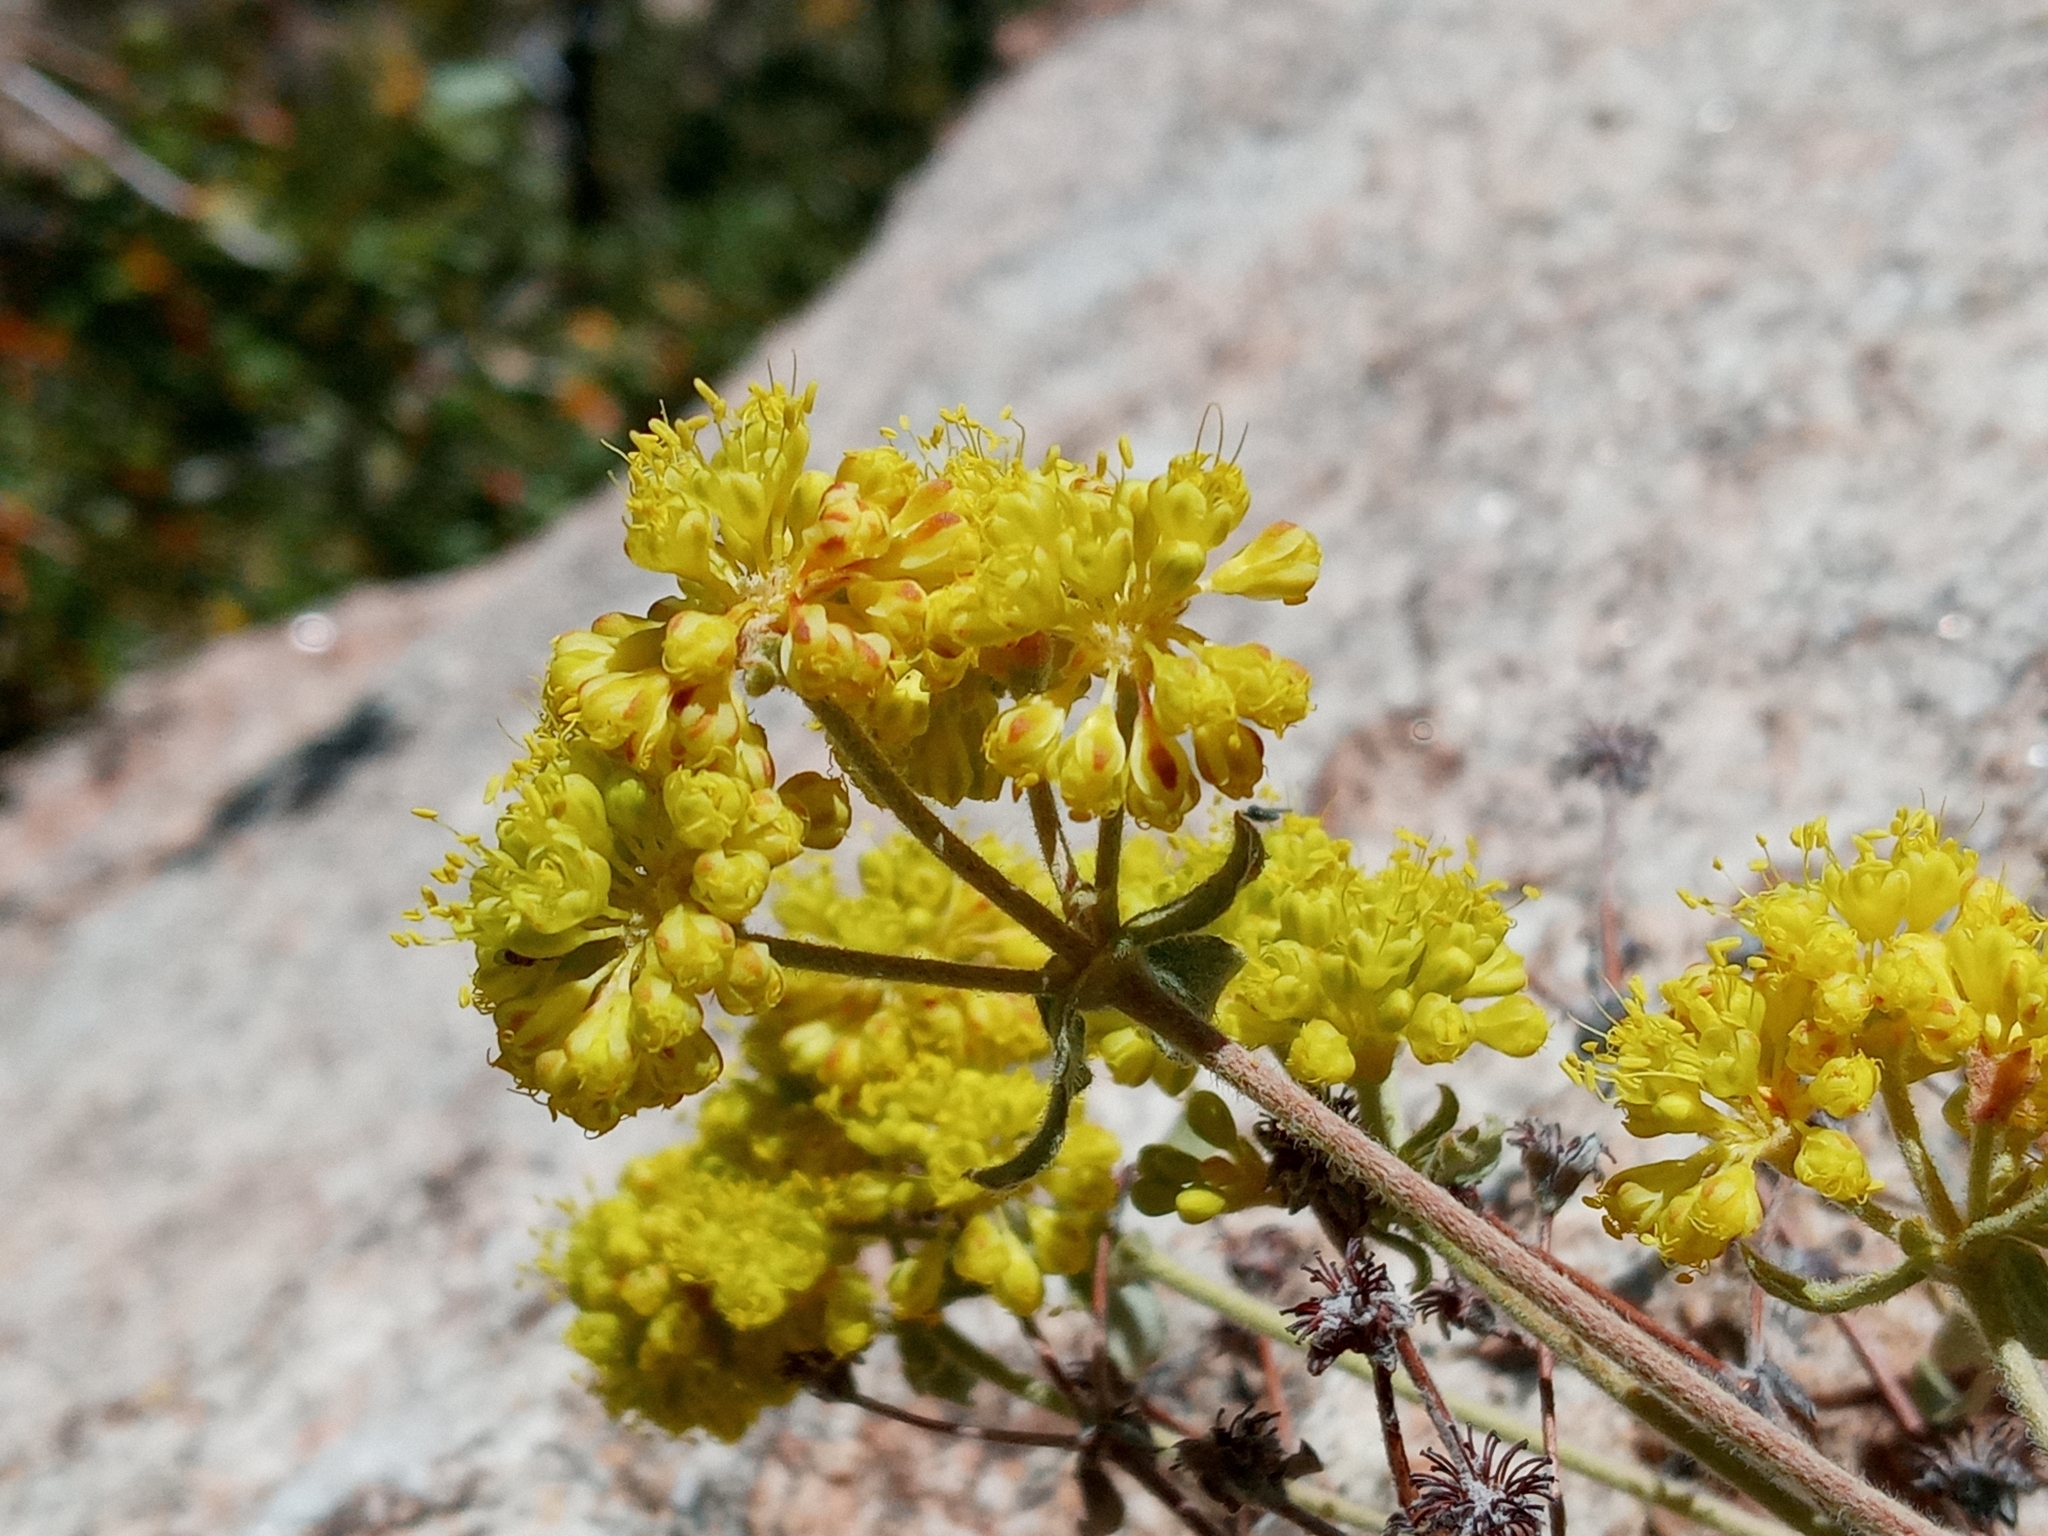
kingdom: Plantae
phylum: Tracheophyta
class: Magnoliopsida
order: Caryophyllales
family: Polygonaceae
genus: Eriogonum
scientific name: Eriogonum umbellatum
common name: Sulfur-buckwheat
